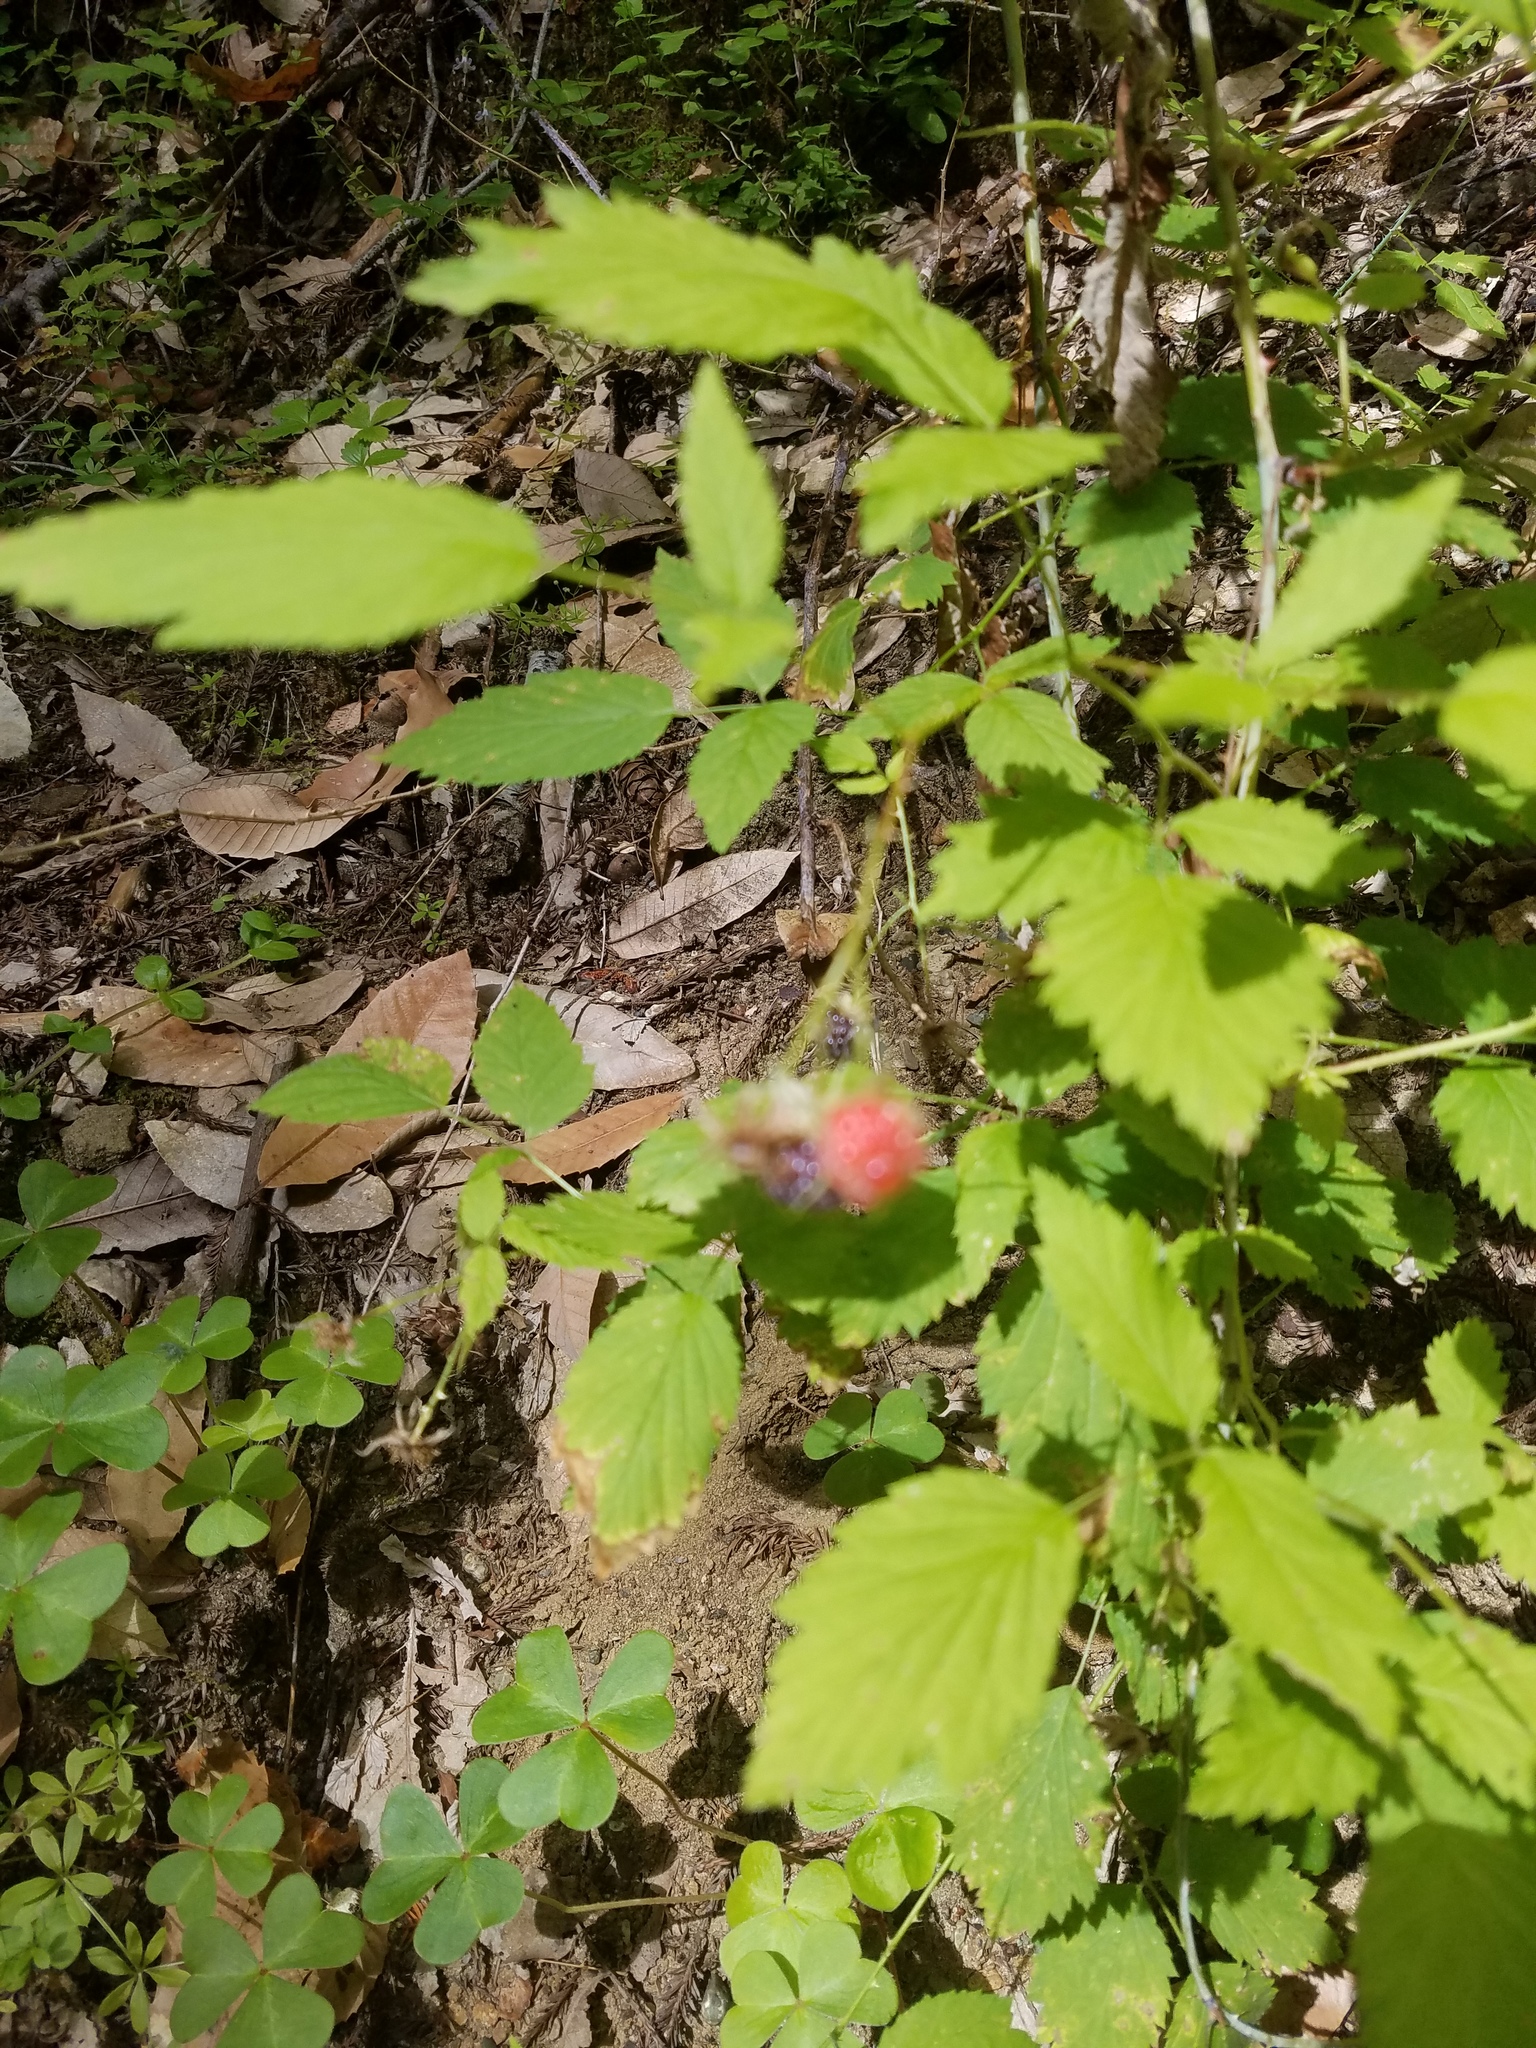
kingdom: Plantae
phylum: Tracheophyta
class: Magnoliopsida
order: Rosales
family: Rosaceae
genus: Rubus
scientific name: Rubus leucodermis
